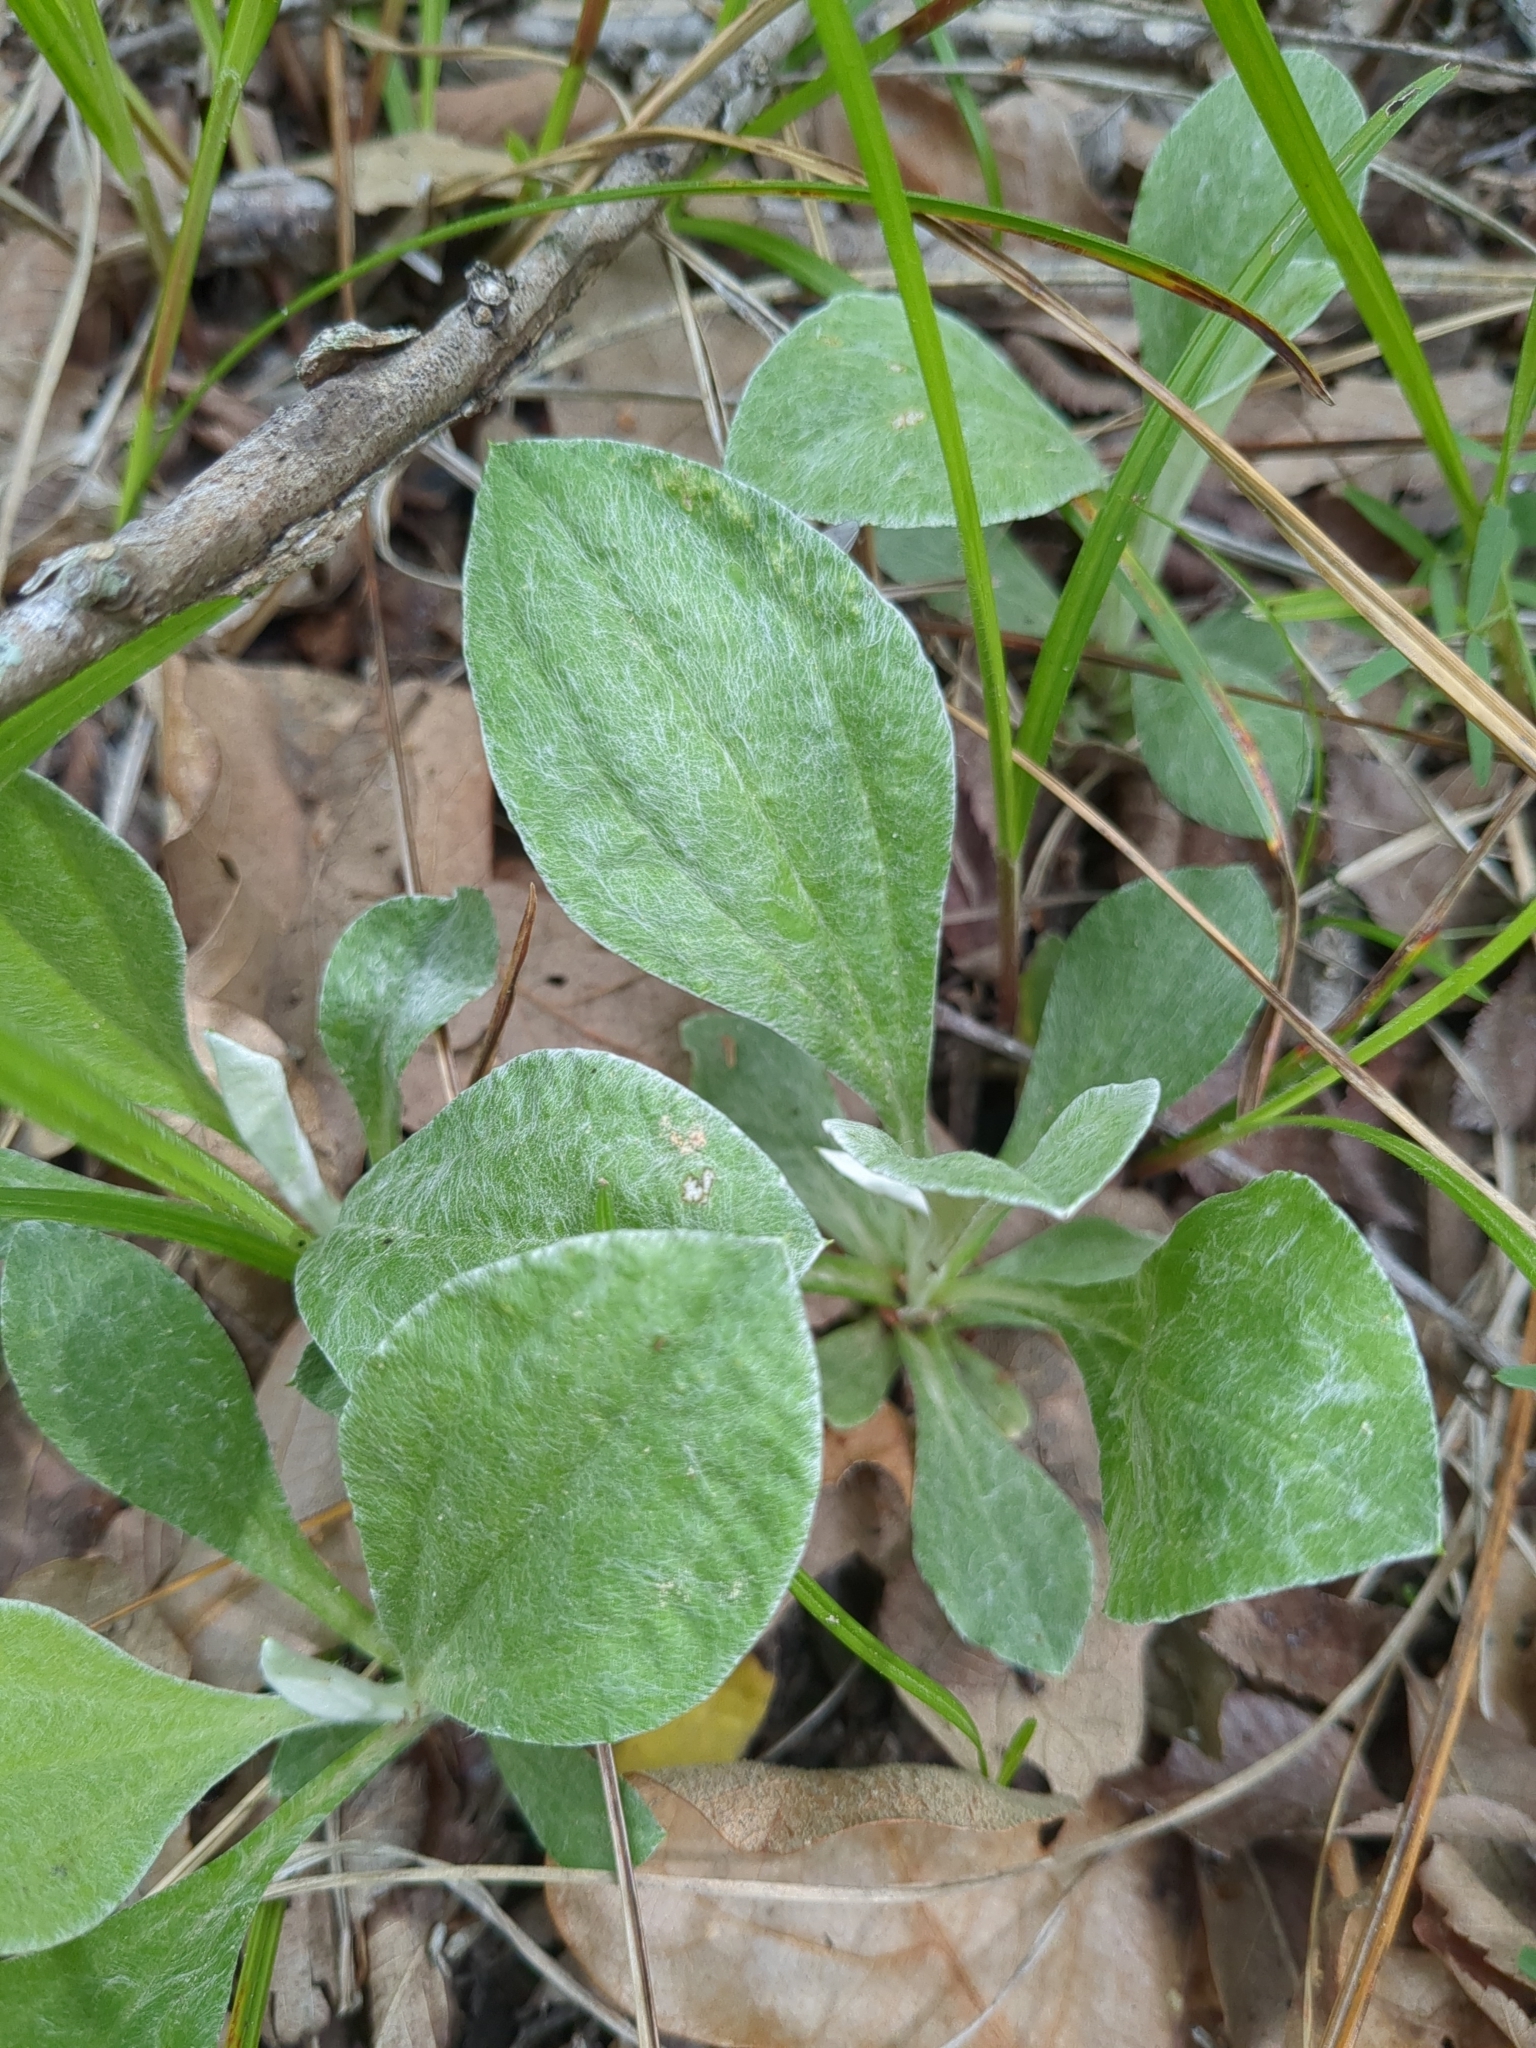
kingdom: Plantae
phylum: Tracheophyta
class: Magnoliopsida
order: Asterales
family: Asteraceae
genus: Antennaria
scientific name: Antennaria parlinii
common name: Parlin's pussytoes
